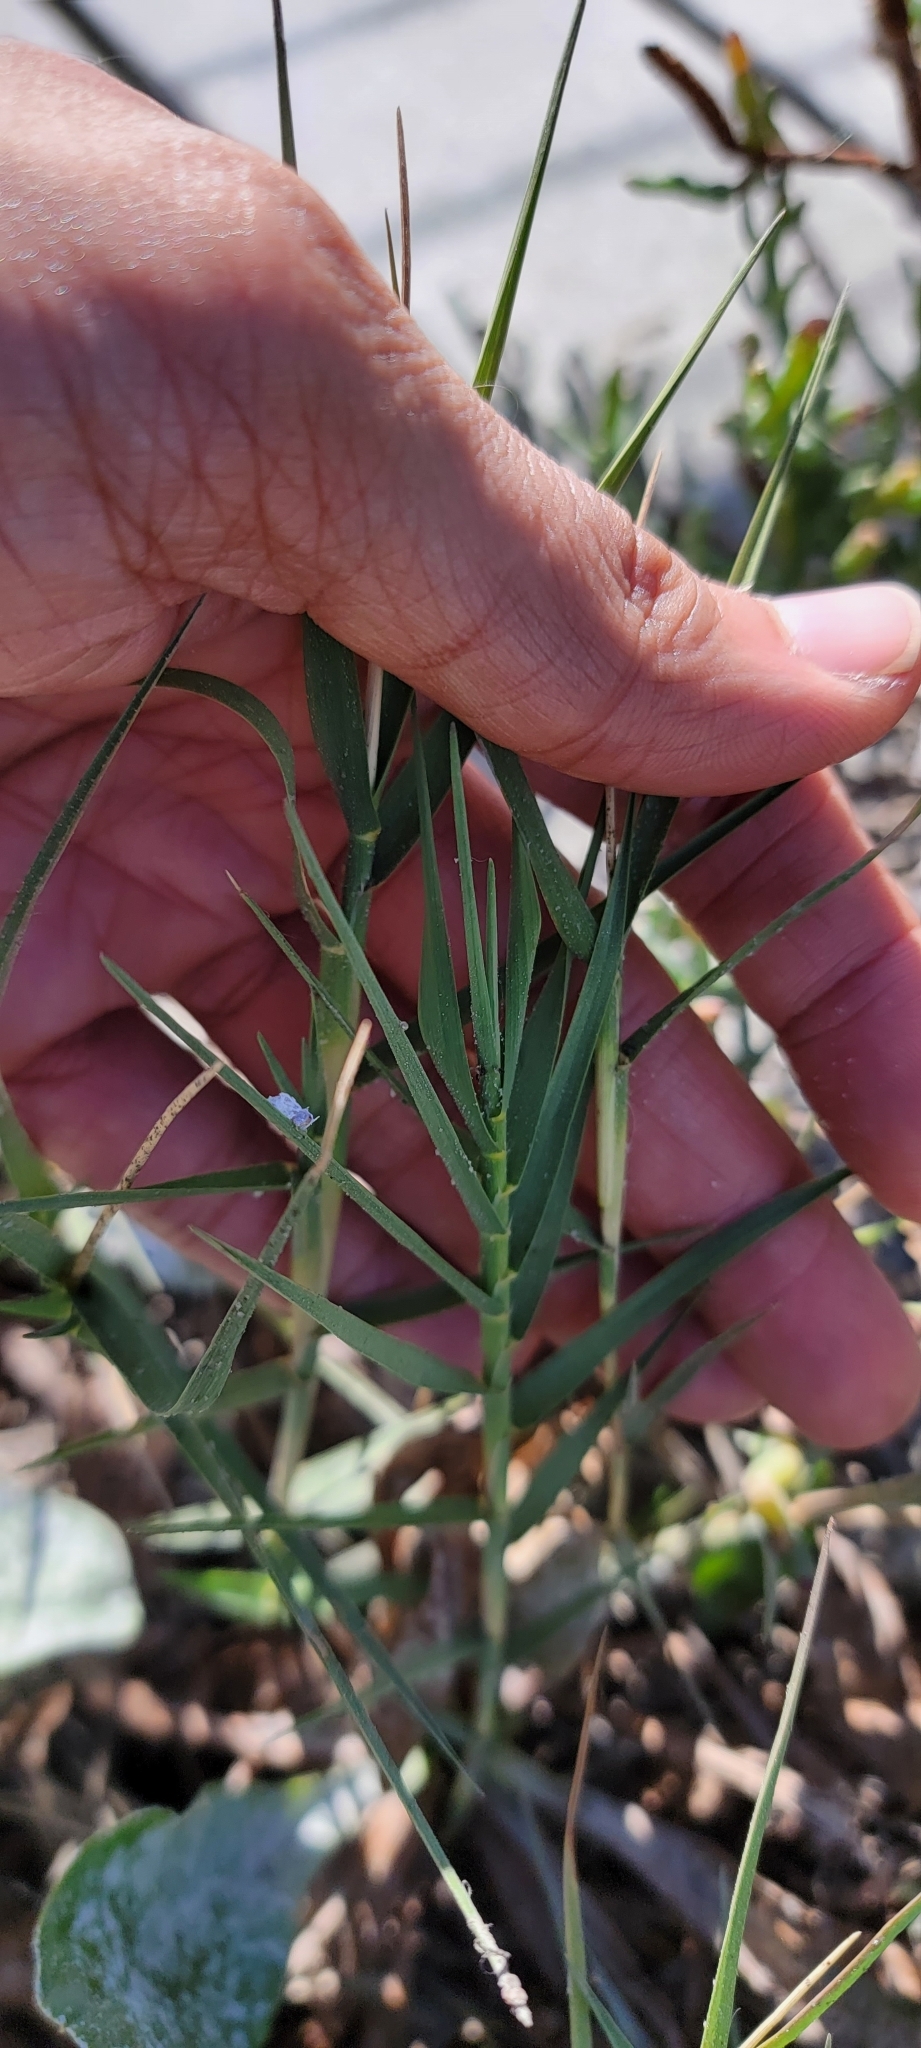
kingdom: Plantae
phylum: Tracheophyta
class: Liliopsida
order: Poales
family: Poaceae
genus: Distichlis
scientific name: Distichlis spicata
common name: Saltgrass
